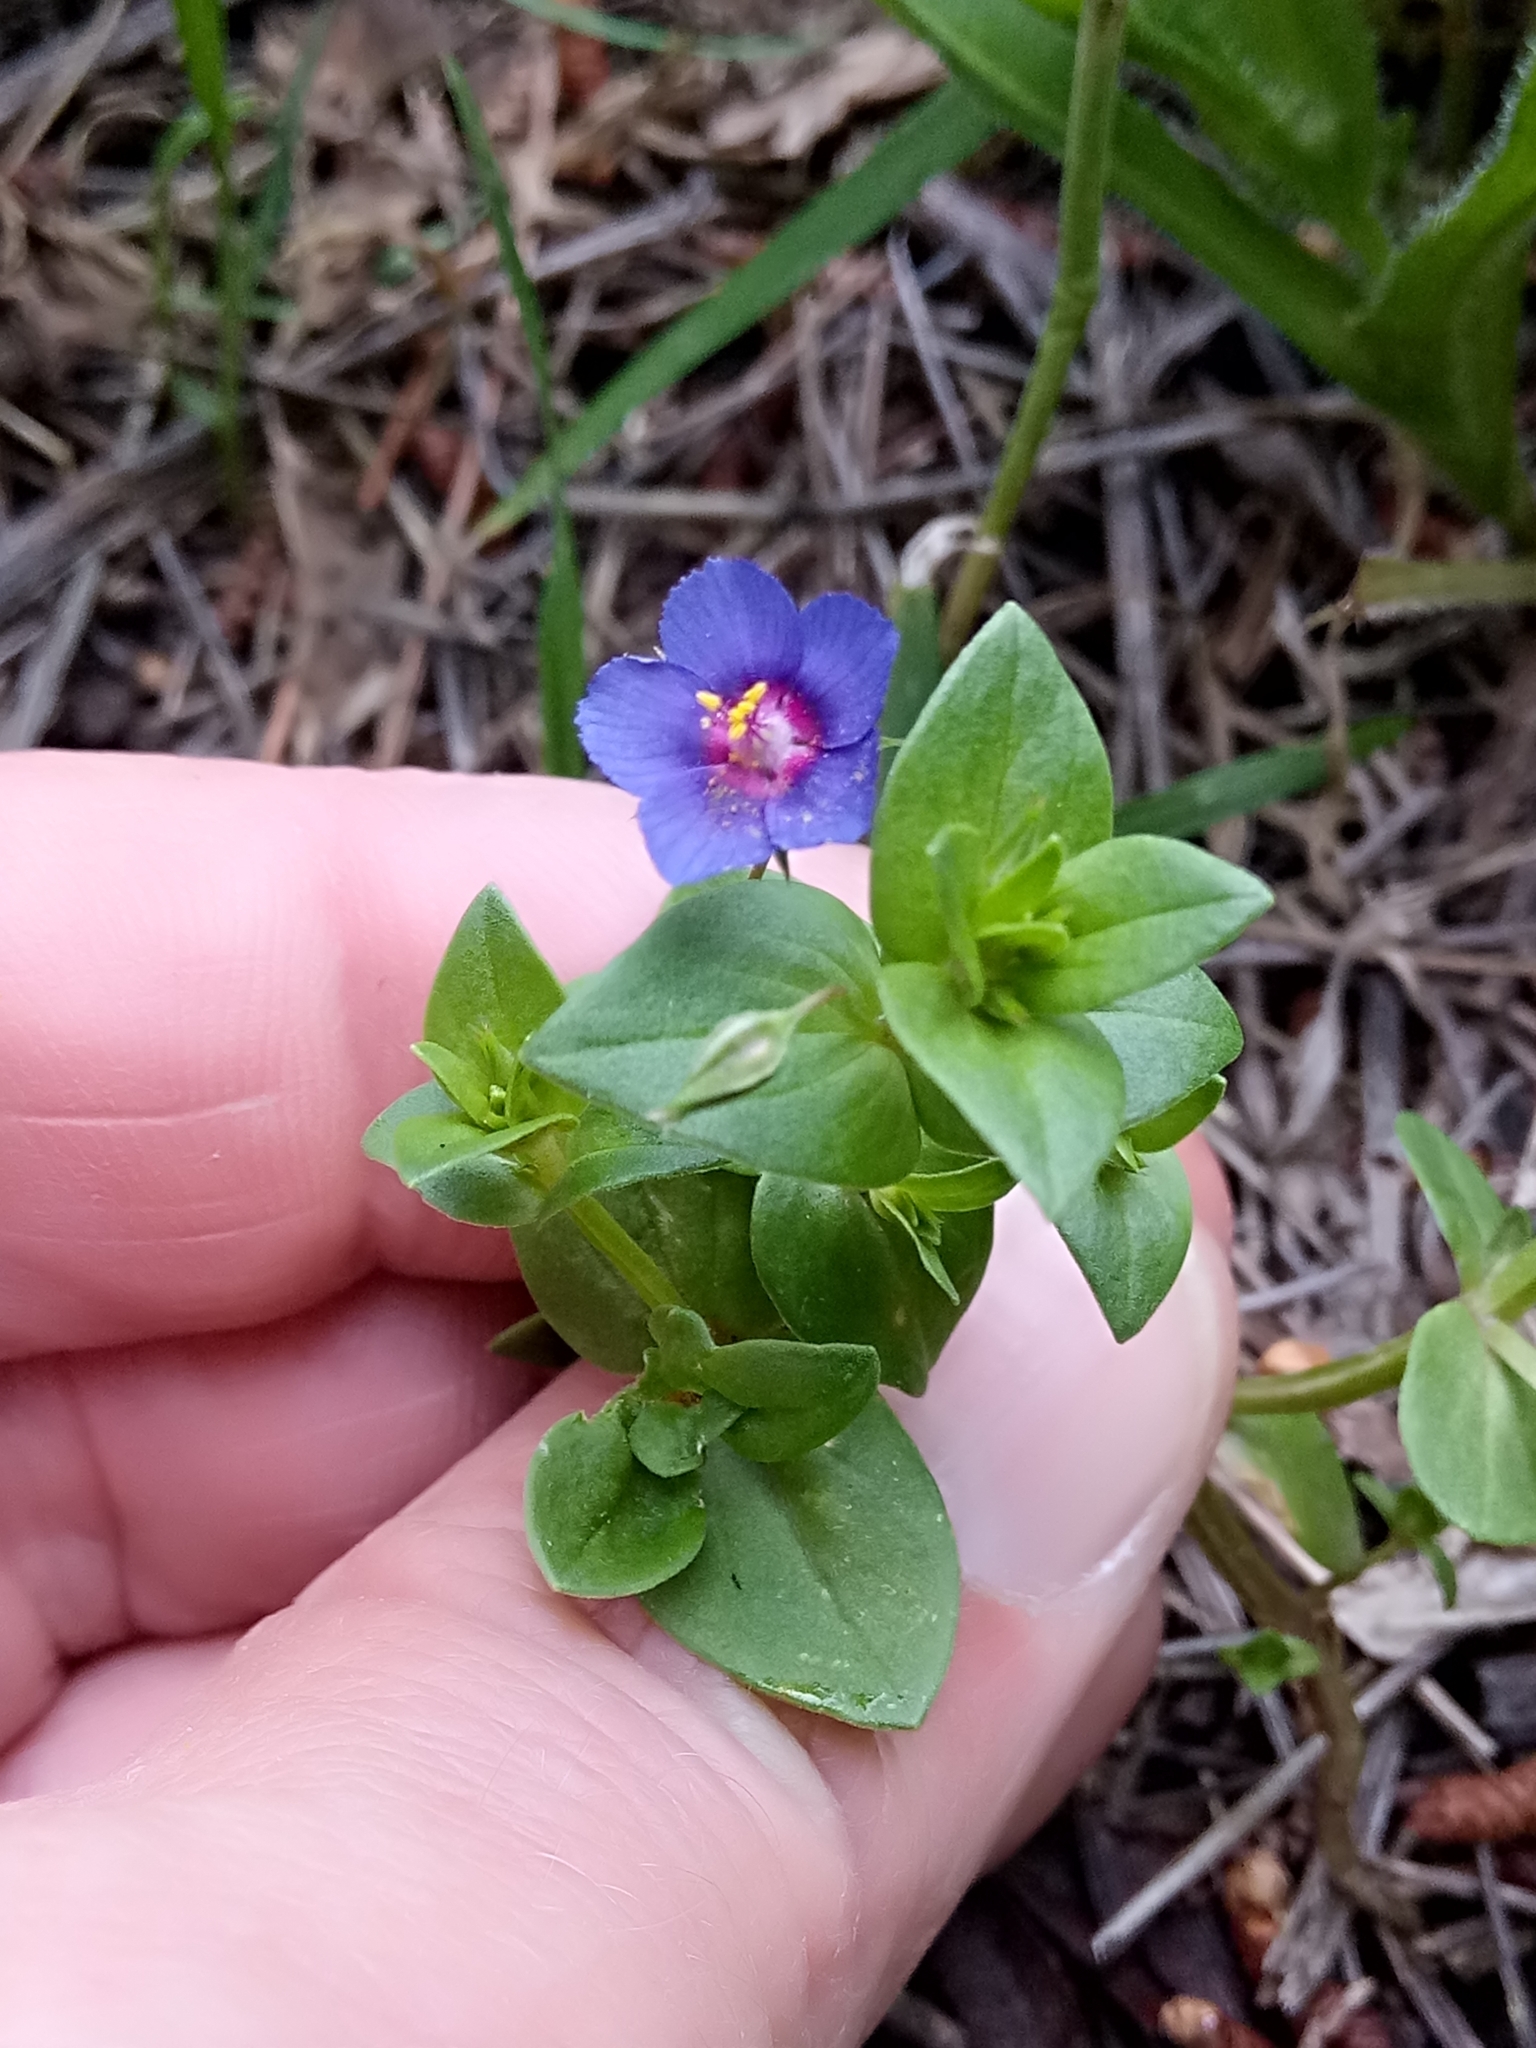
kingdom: Plantae
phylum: Tracheophyta
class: Magnoliopsida
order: Ericales
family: Primulaceae
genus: Lysimachia
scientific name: Lysimachia loeflingii
